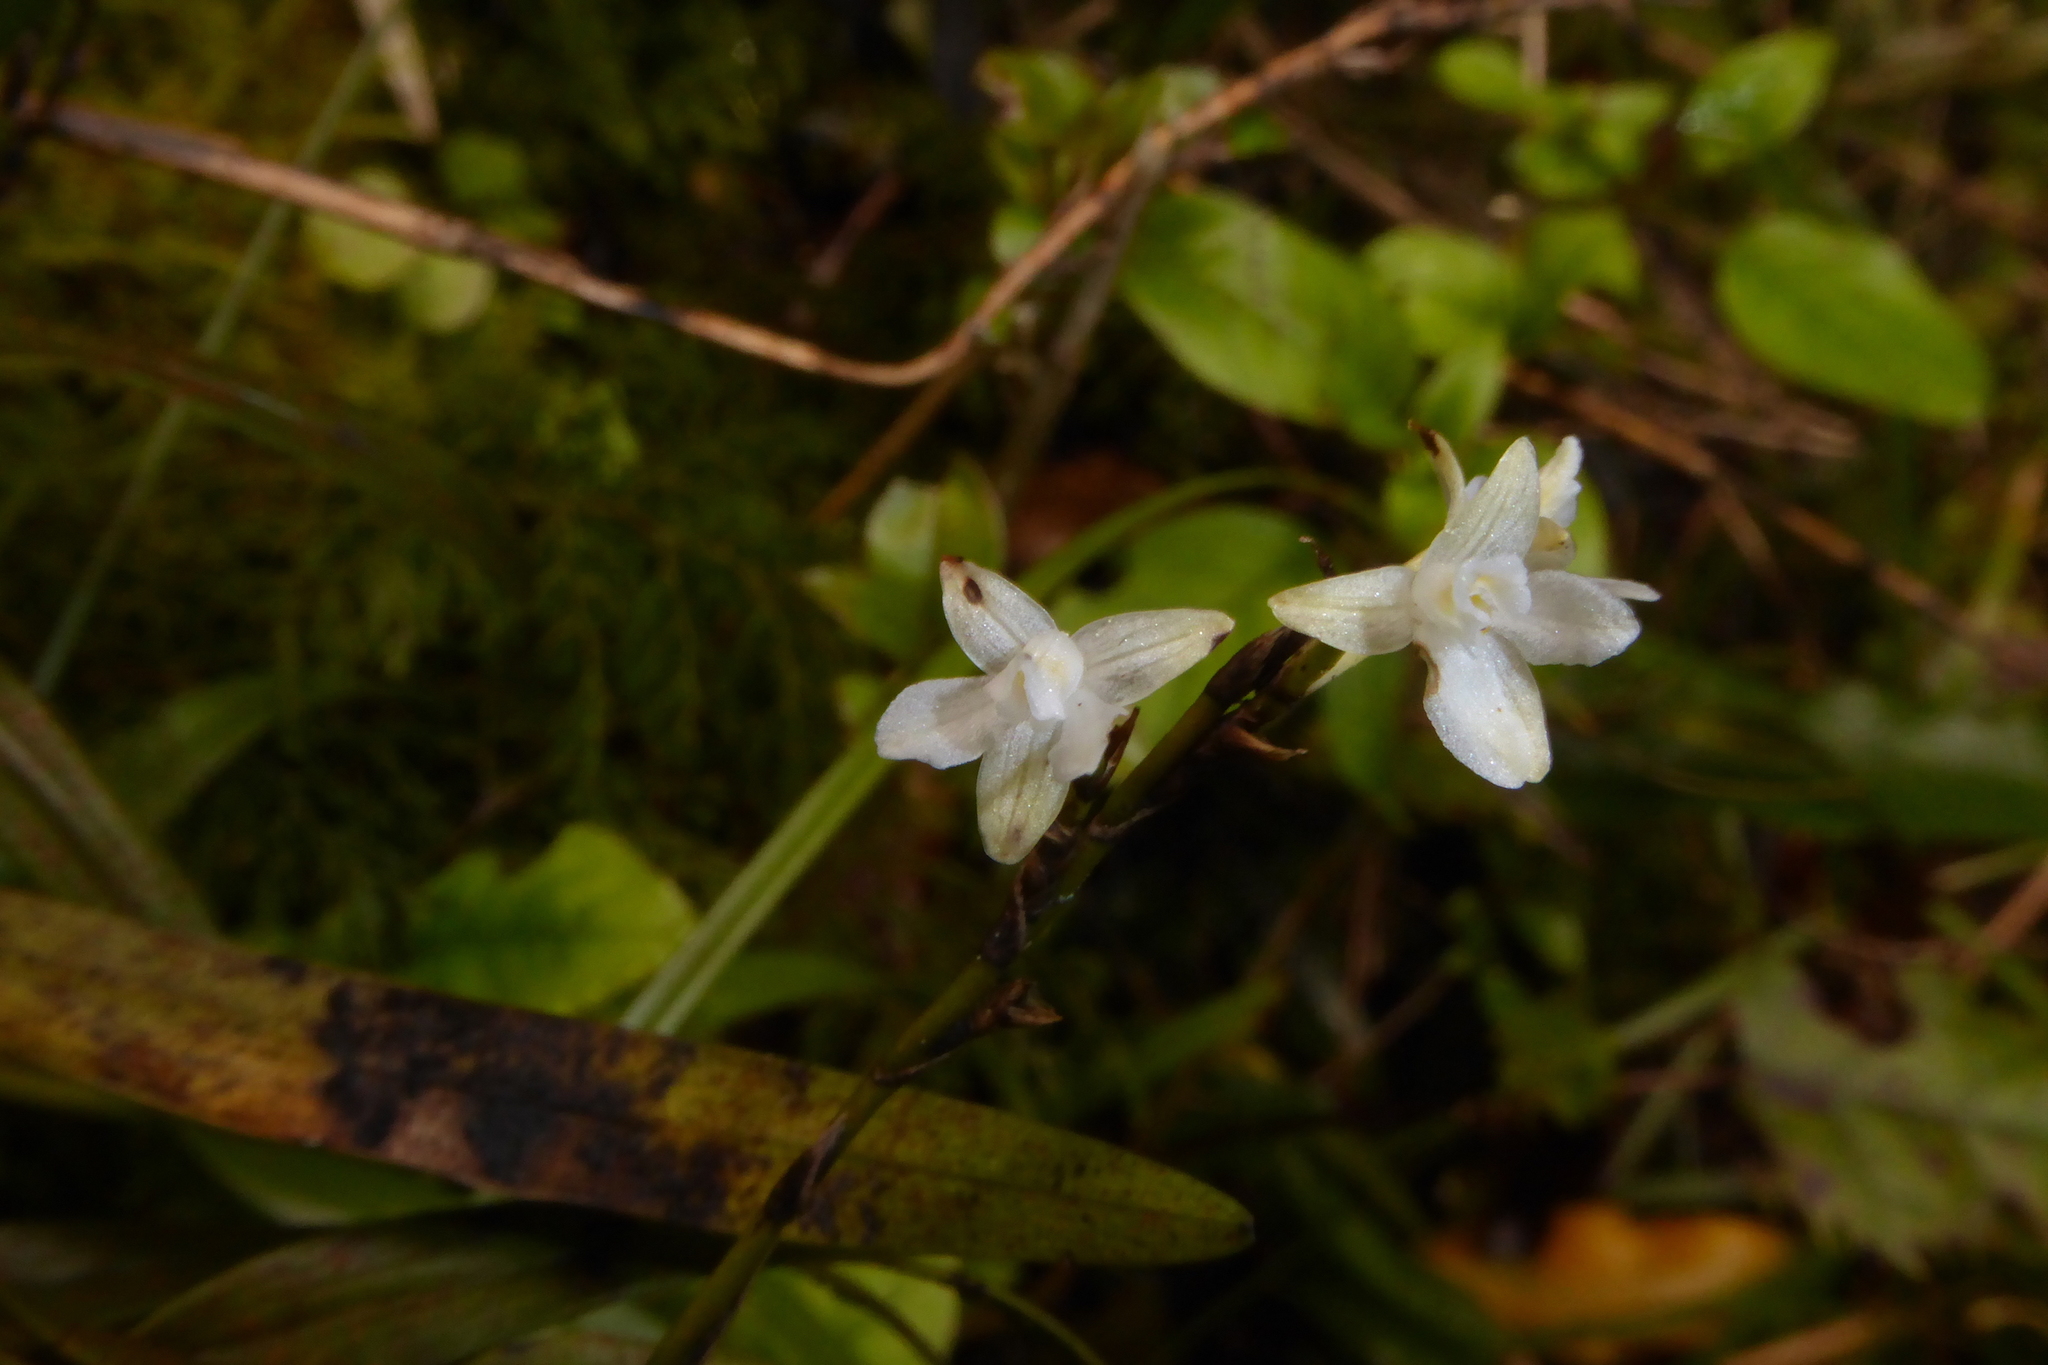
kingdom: Plantae
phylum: Tracheophyta
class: Liliopsida
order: Asparagales
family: Orchidaceae
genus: Earina
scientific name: Earina autumnalis
